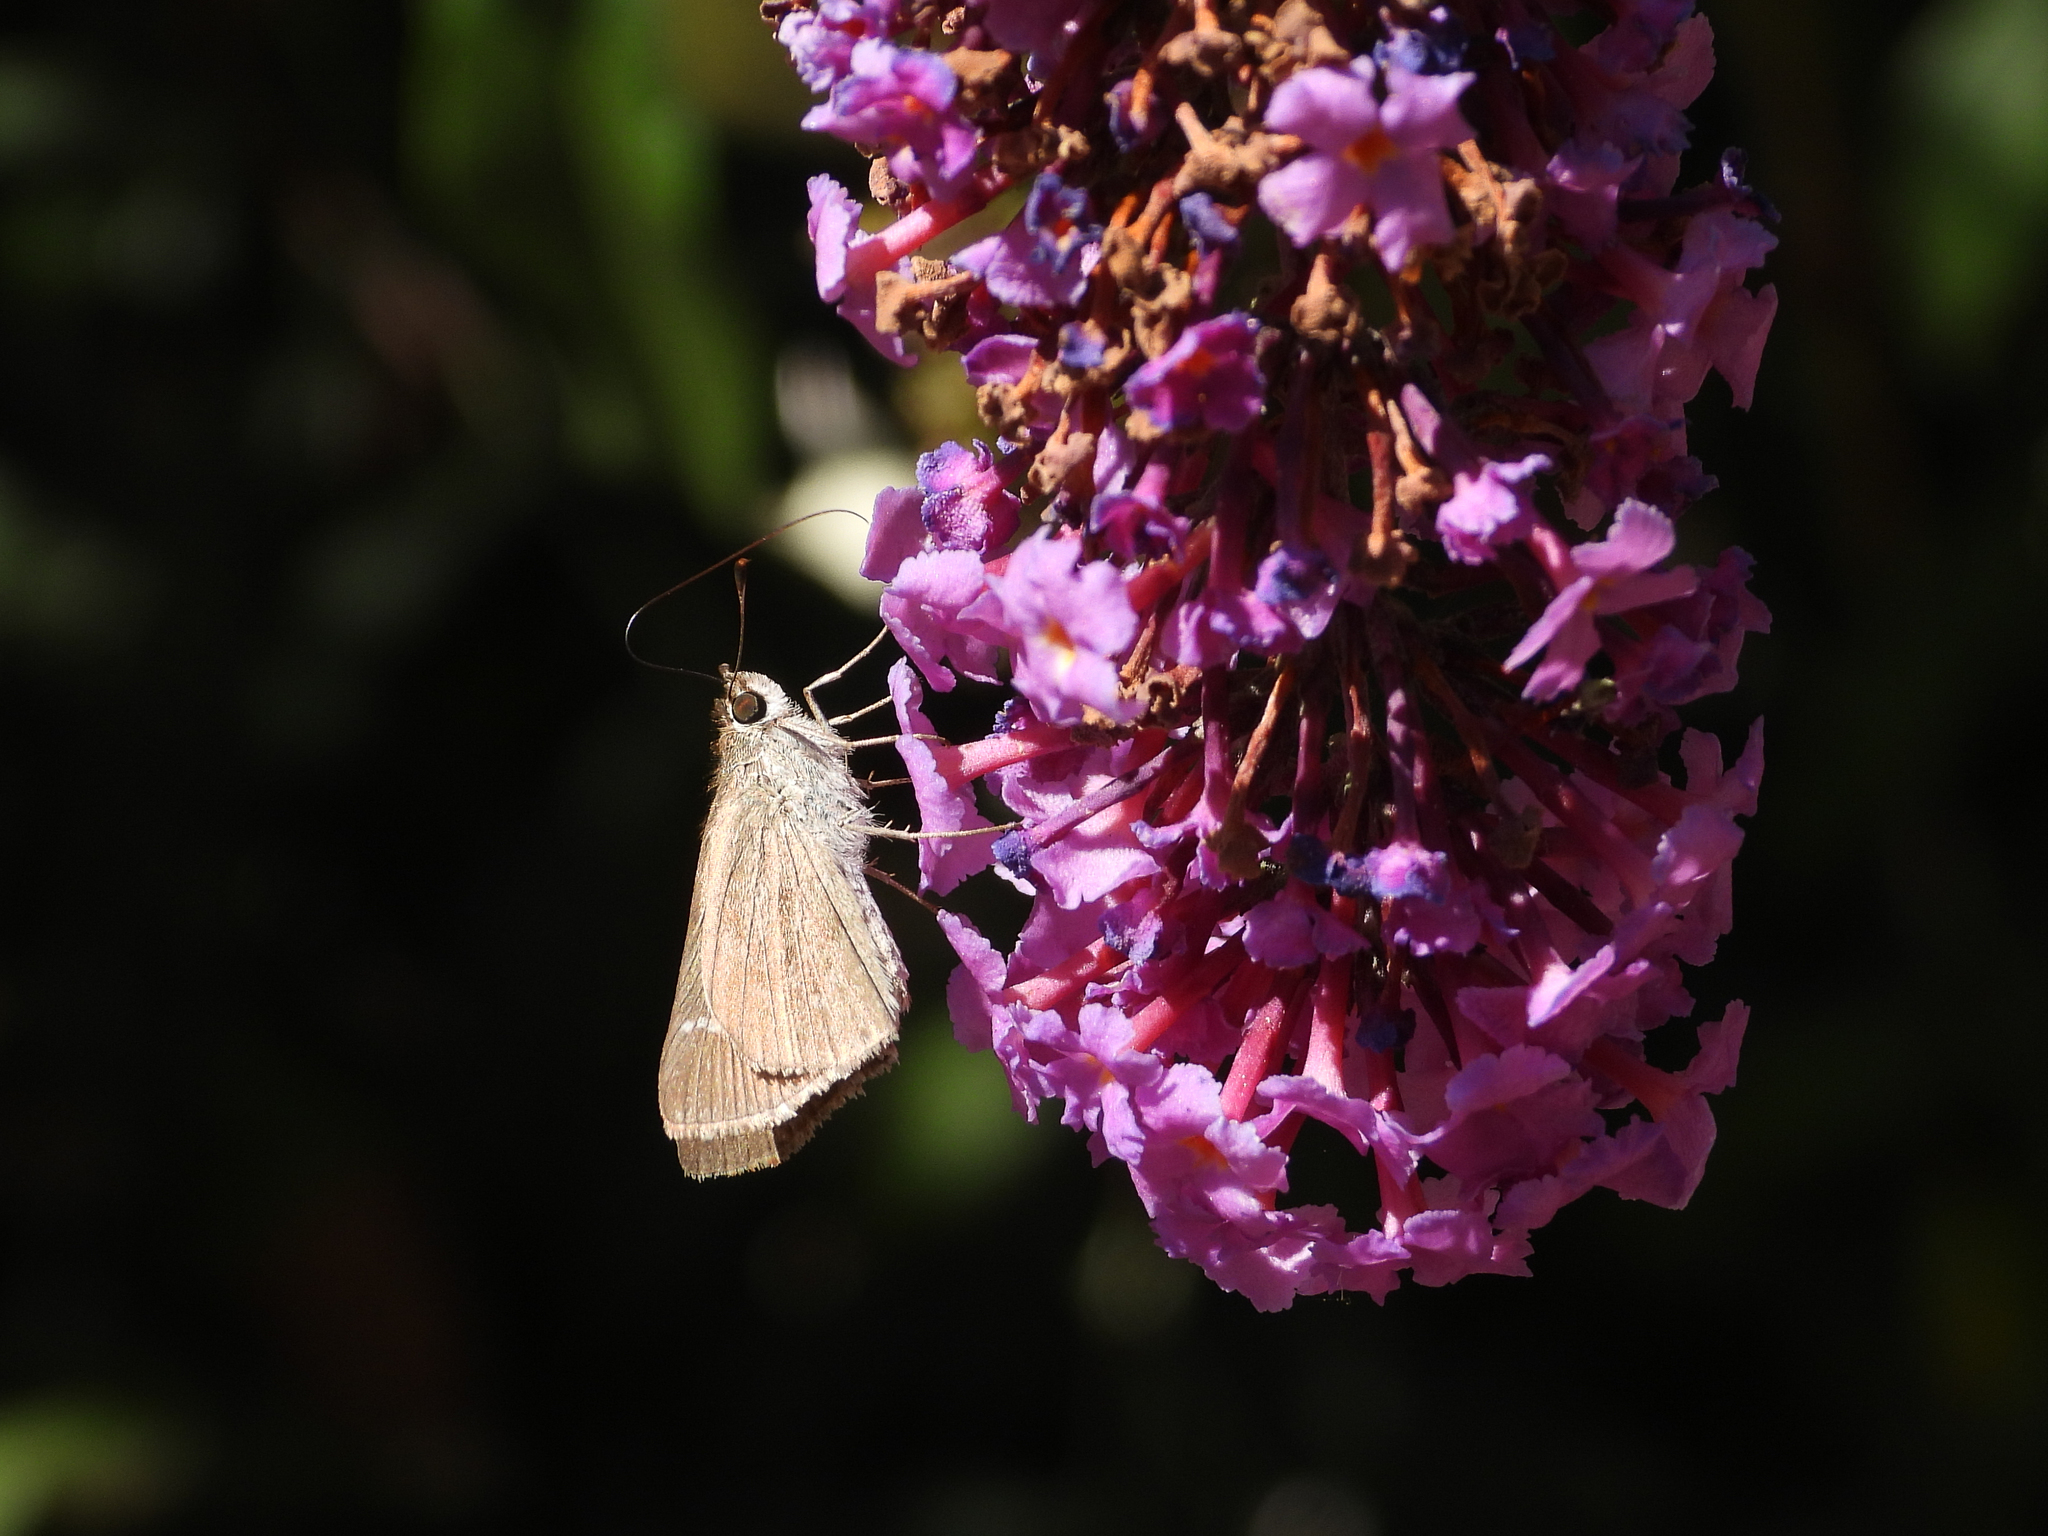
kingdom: Animalia
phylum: Arthropoda
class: Insecta
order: Lepidoptera
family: Hesperiidae
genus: Lerodea
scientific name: Lerodea eufala
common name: Eufala skipper
